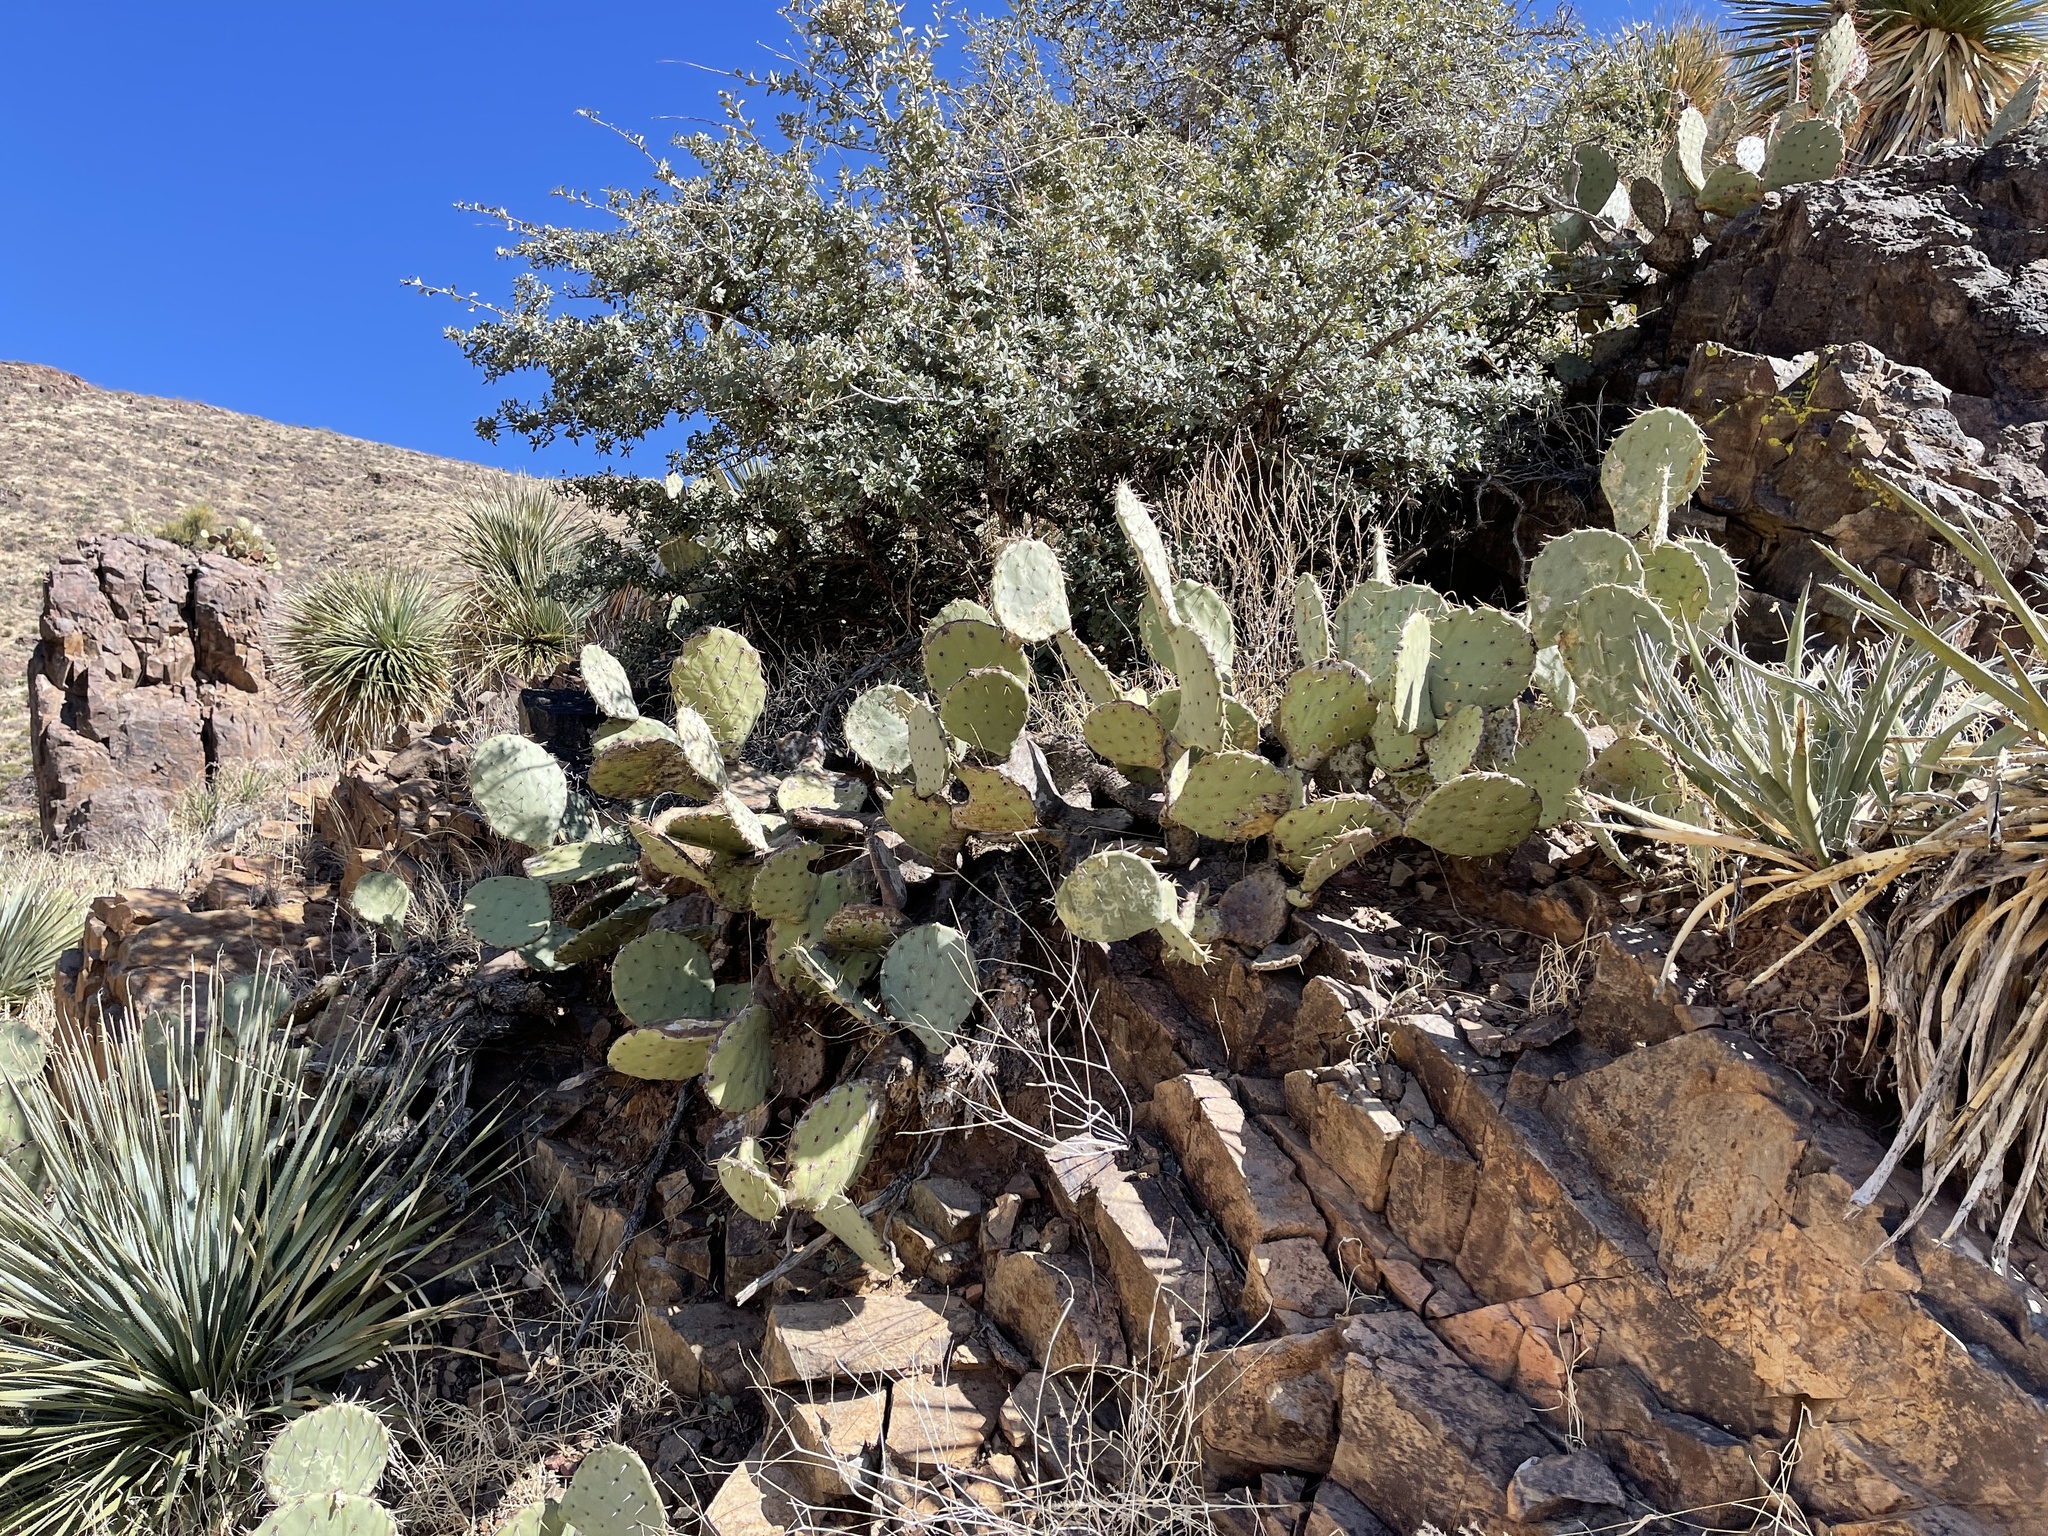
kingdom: Plantae
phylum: Tracheophyta
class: Magnoliopsida
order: Caryophyllales
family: Cactaceae
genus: Opuntia
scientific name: Opuntia engelmannii
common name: Cactus-apple
